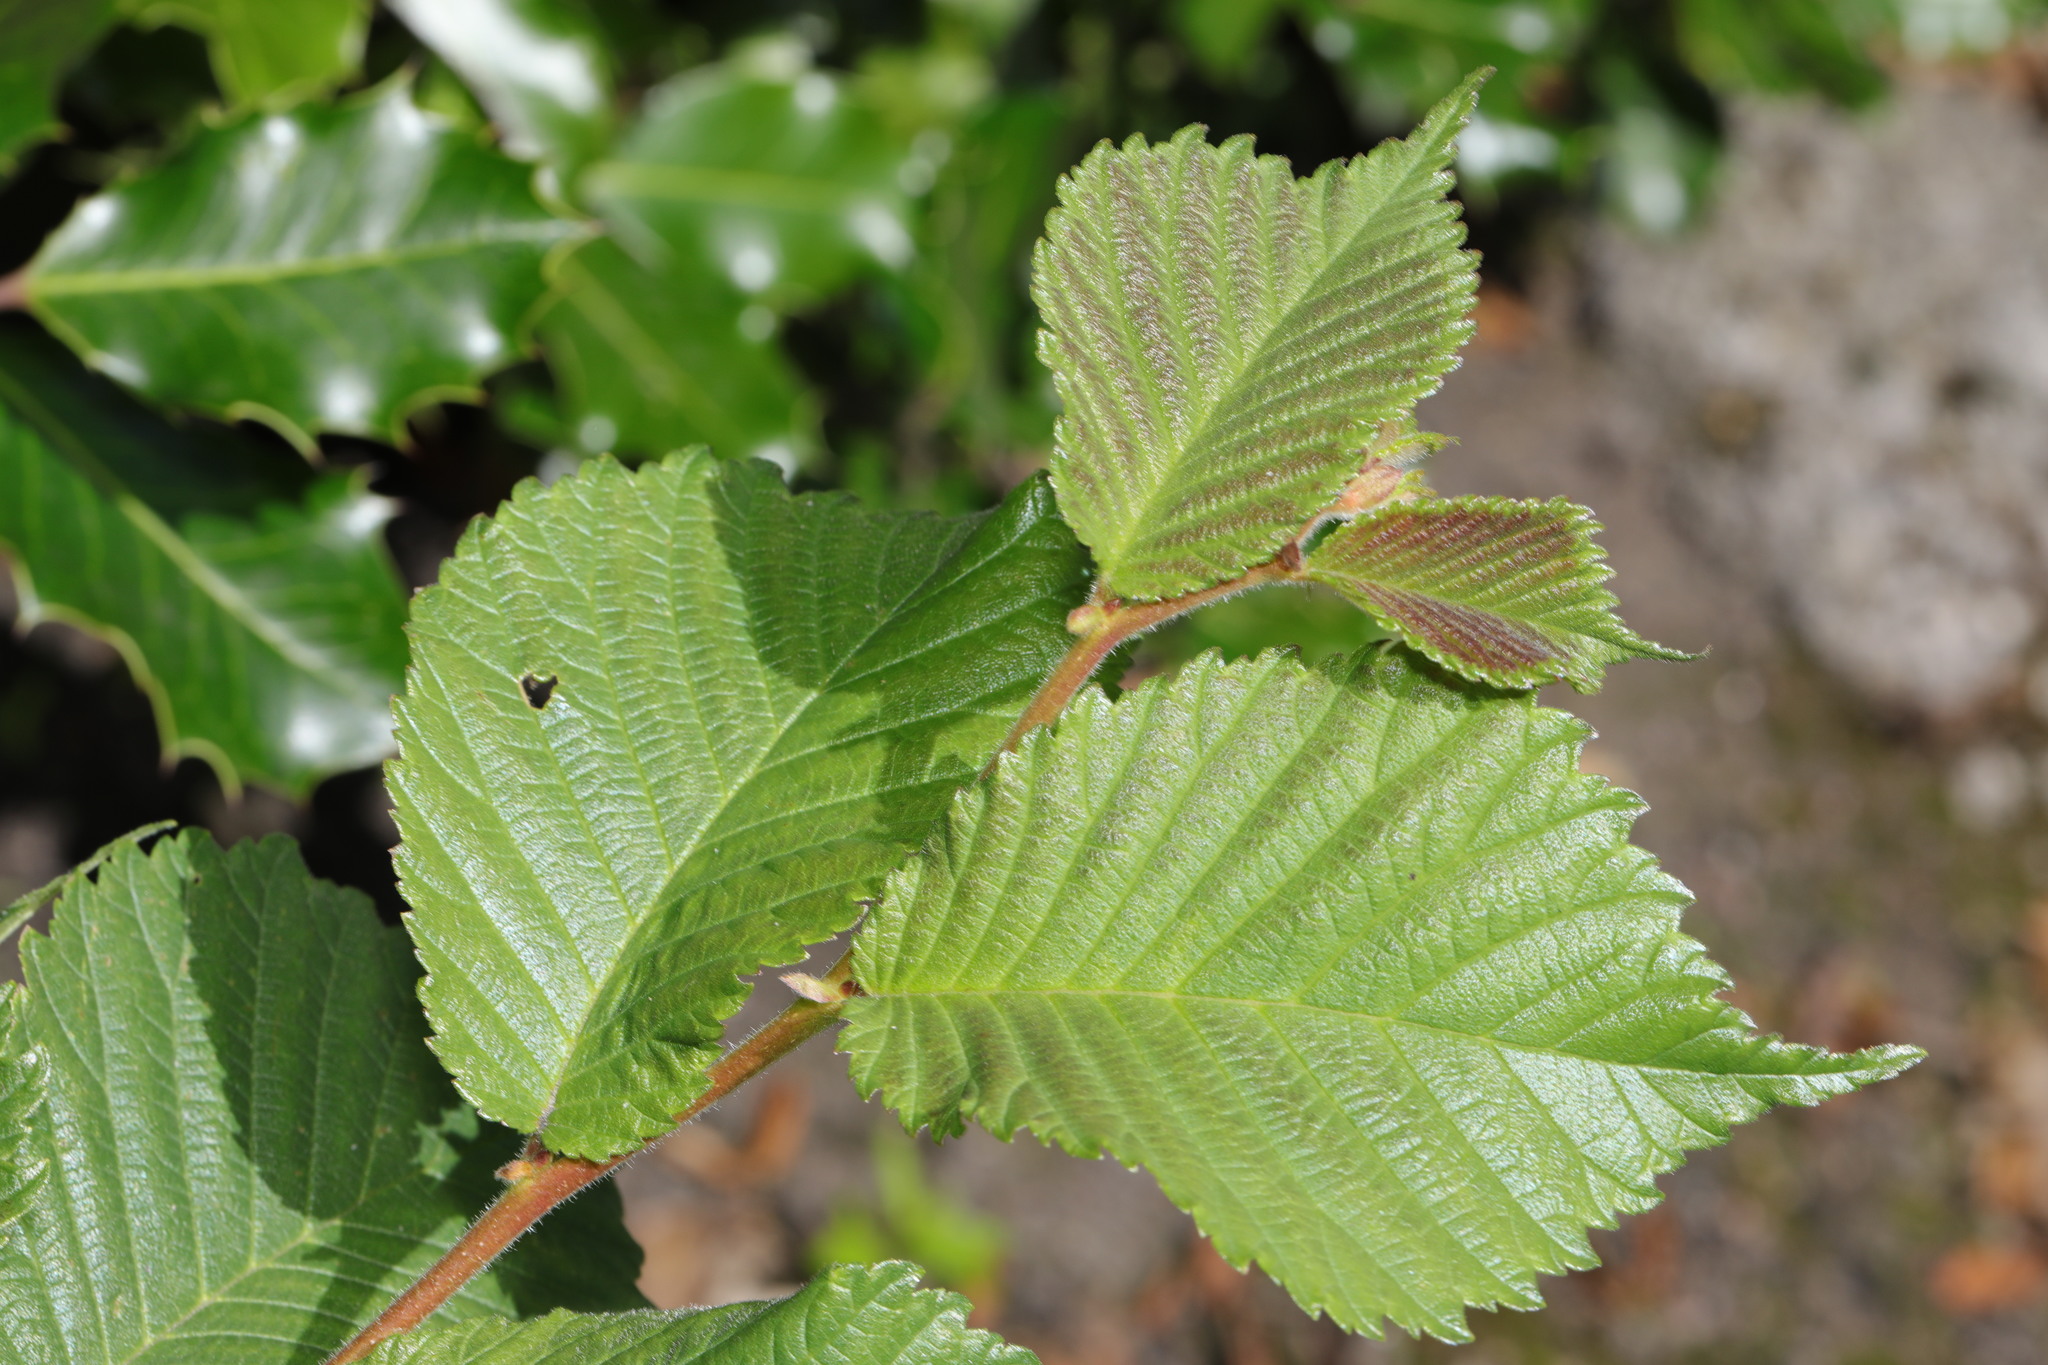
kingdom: Plantae
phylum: Tracheophyta
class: Magnoliopsida
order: Rosales
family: Ulmaceae
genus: Ulmus
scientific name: Ulmus glabra
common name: Wych elm
